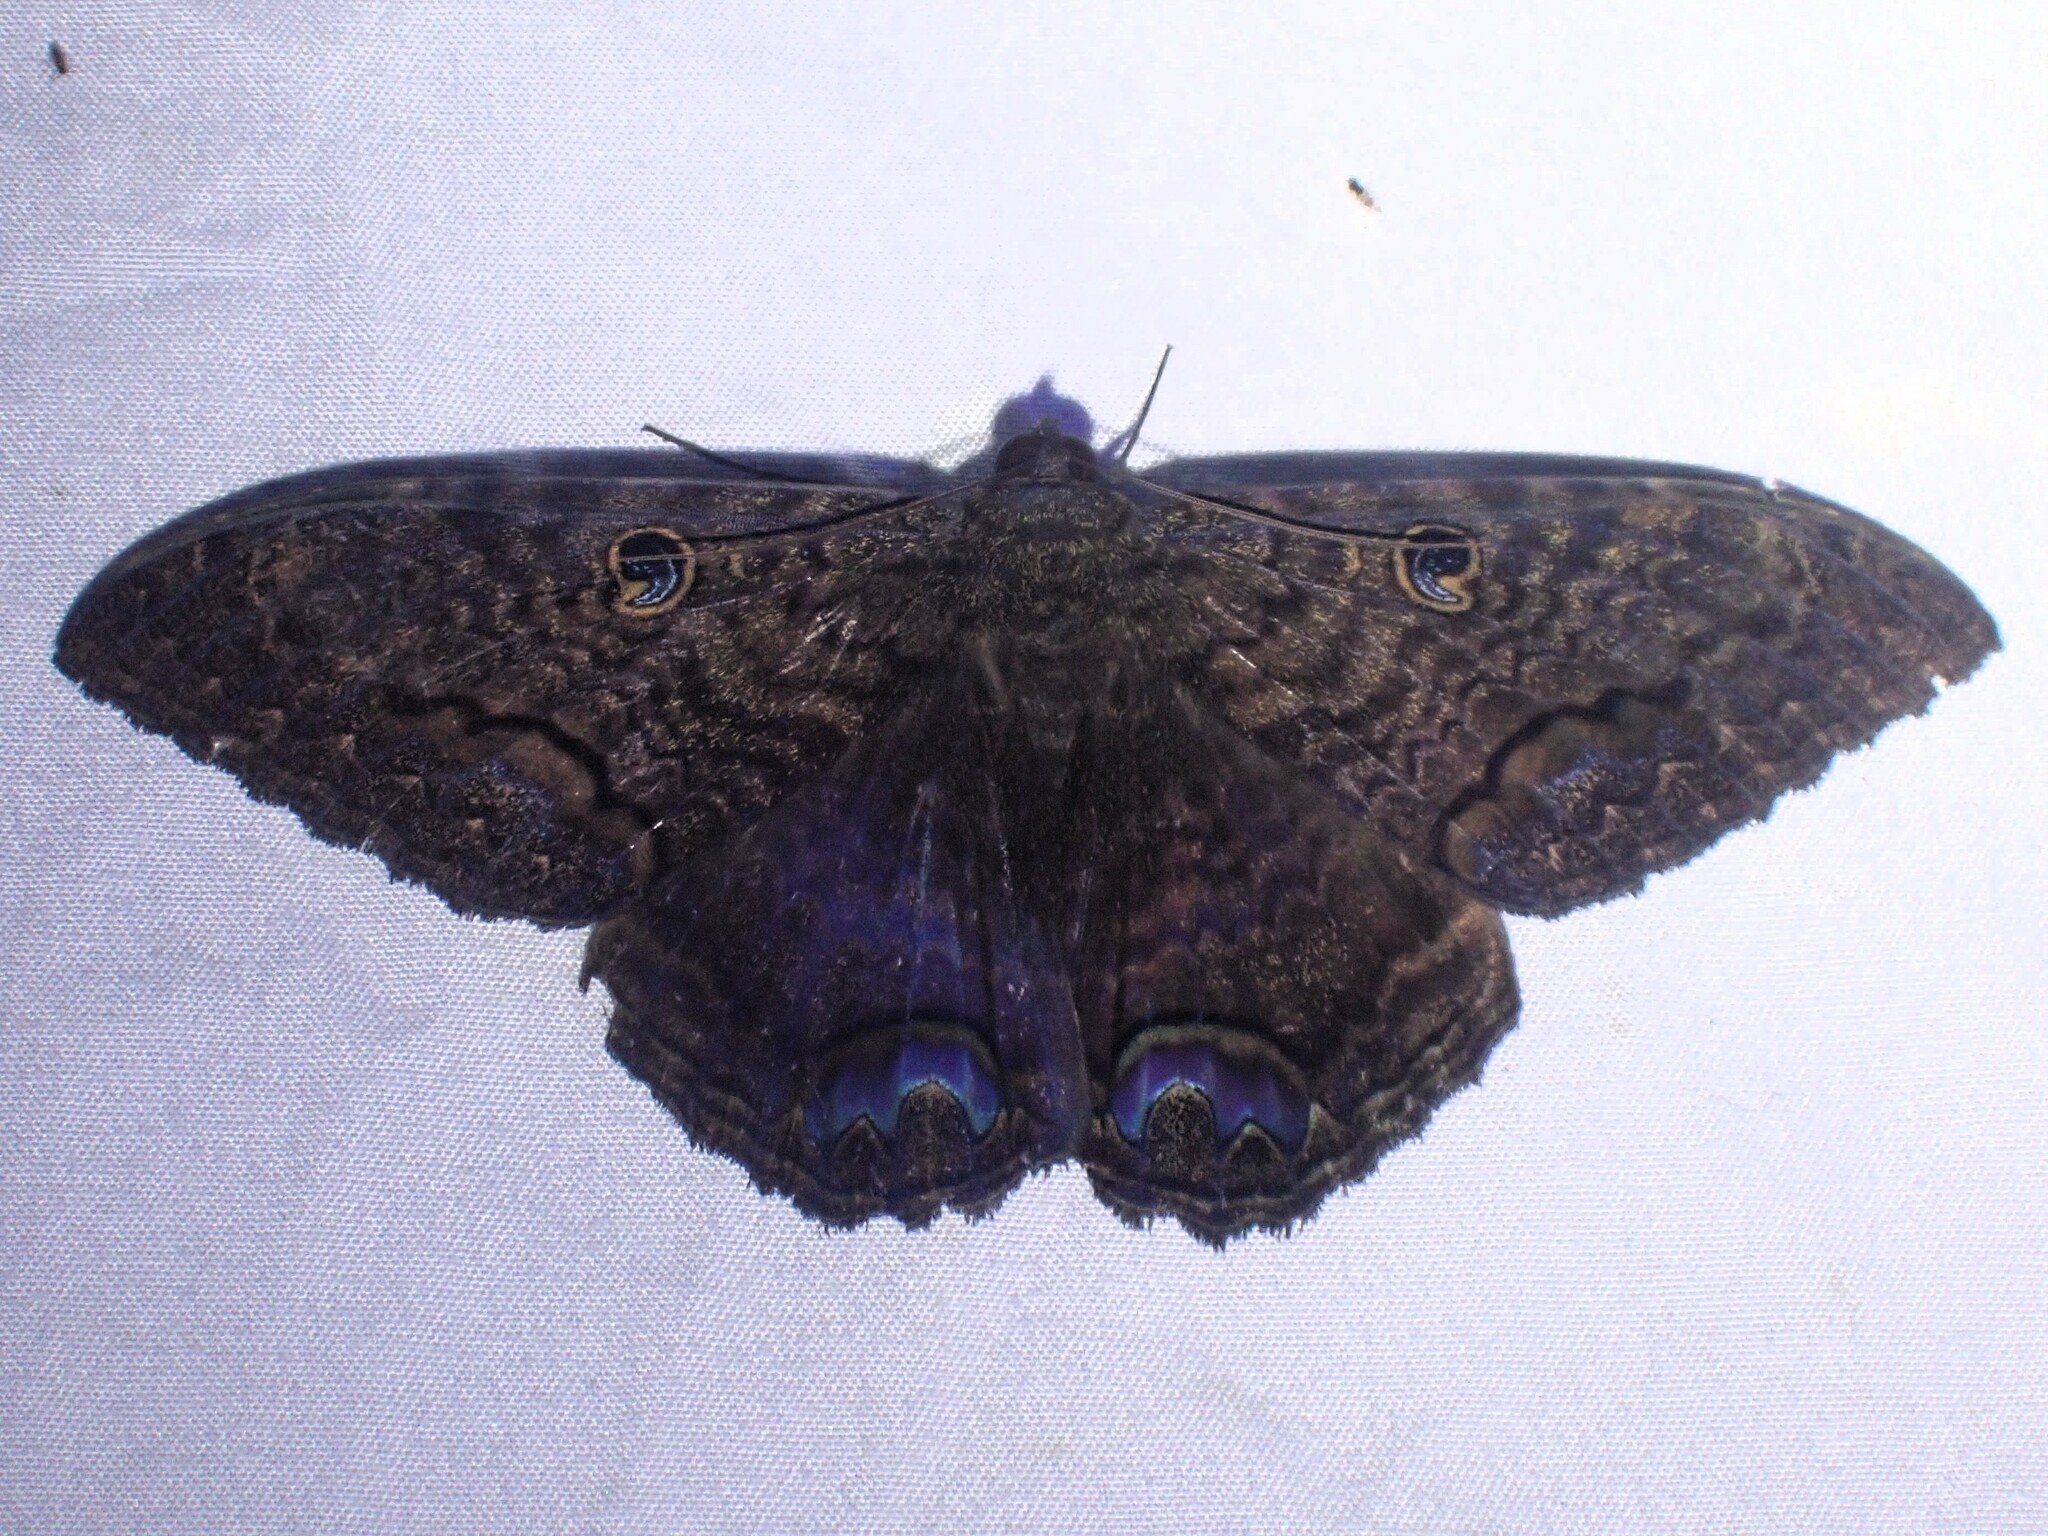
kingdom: Animalia
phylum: Arthropoda
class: Insecta
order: Lepidoptera
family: Erebidae
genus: Ascalapha
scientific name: Ascalapha odorata
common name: Black witch
